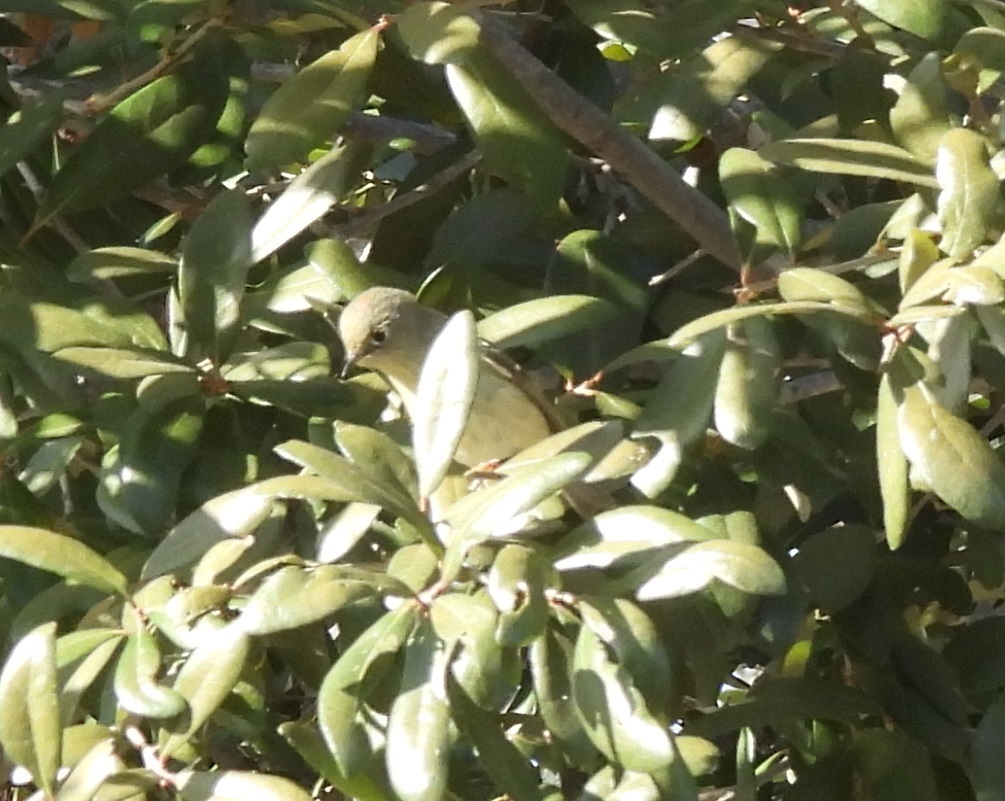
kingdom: Animalia
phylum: Chordata
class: Aves
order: Passeriformes
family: Regulidae
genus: Regulus
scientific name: Regulus calendula
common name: Ruby-crowned kinglet
